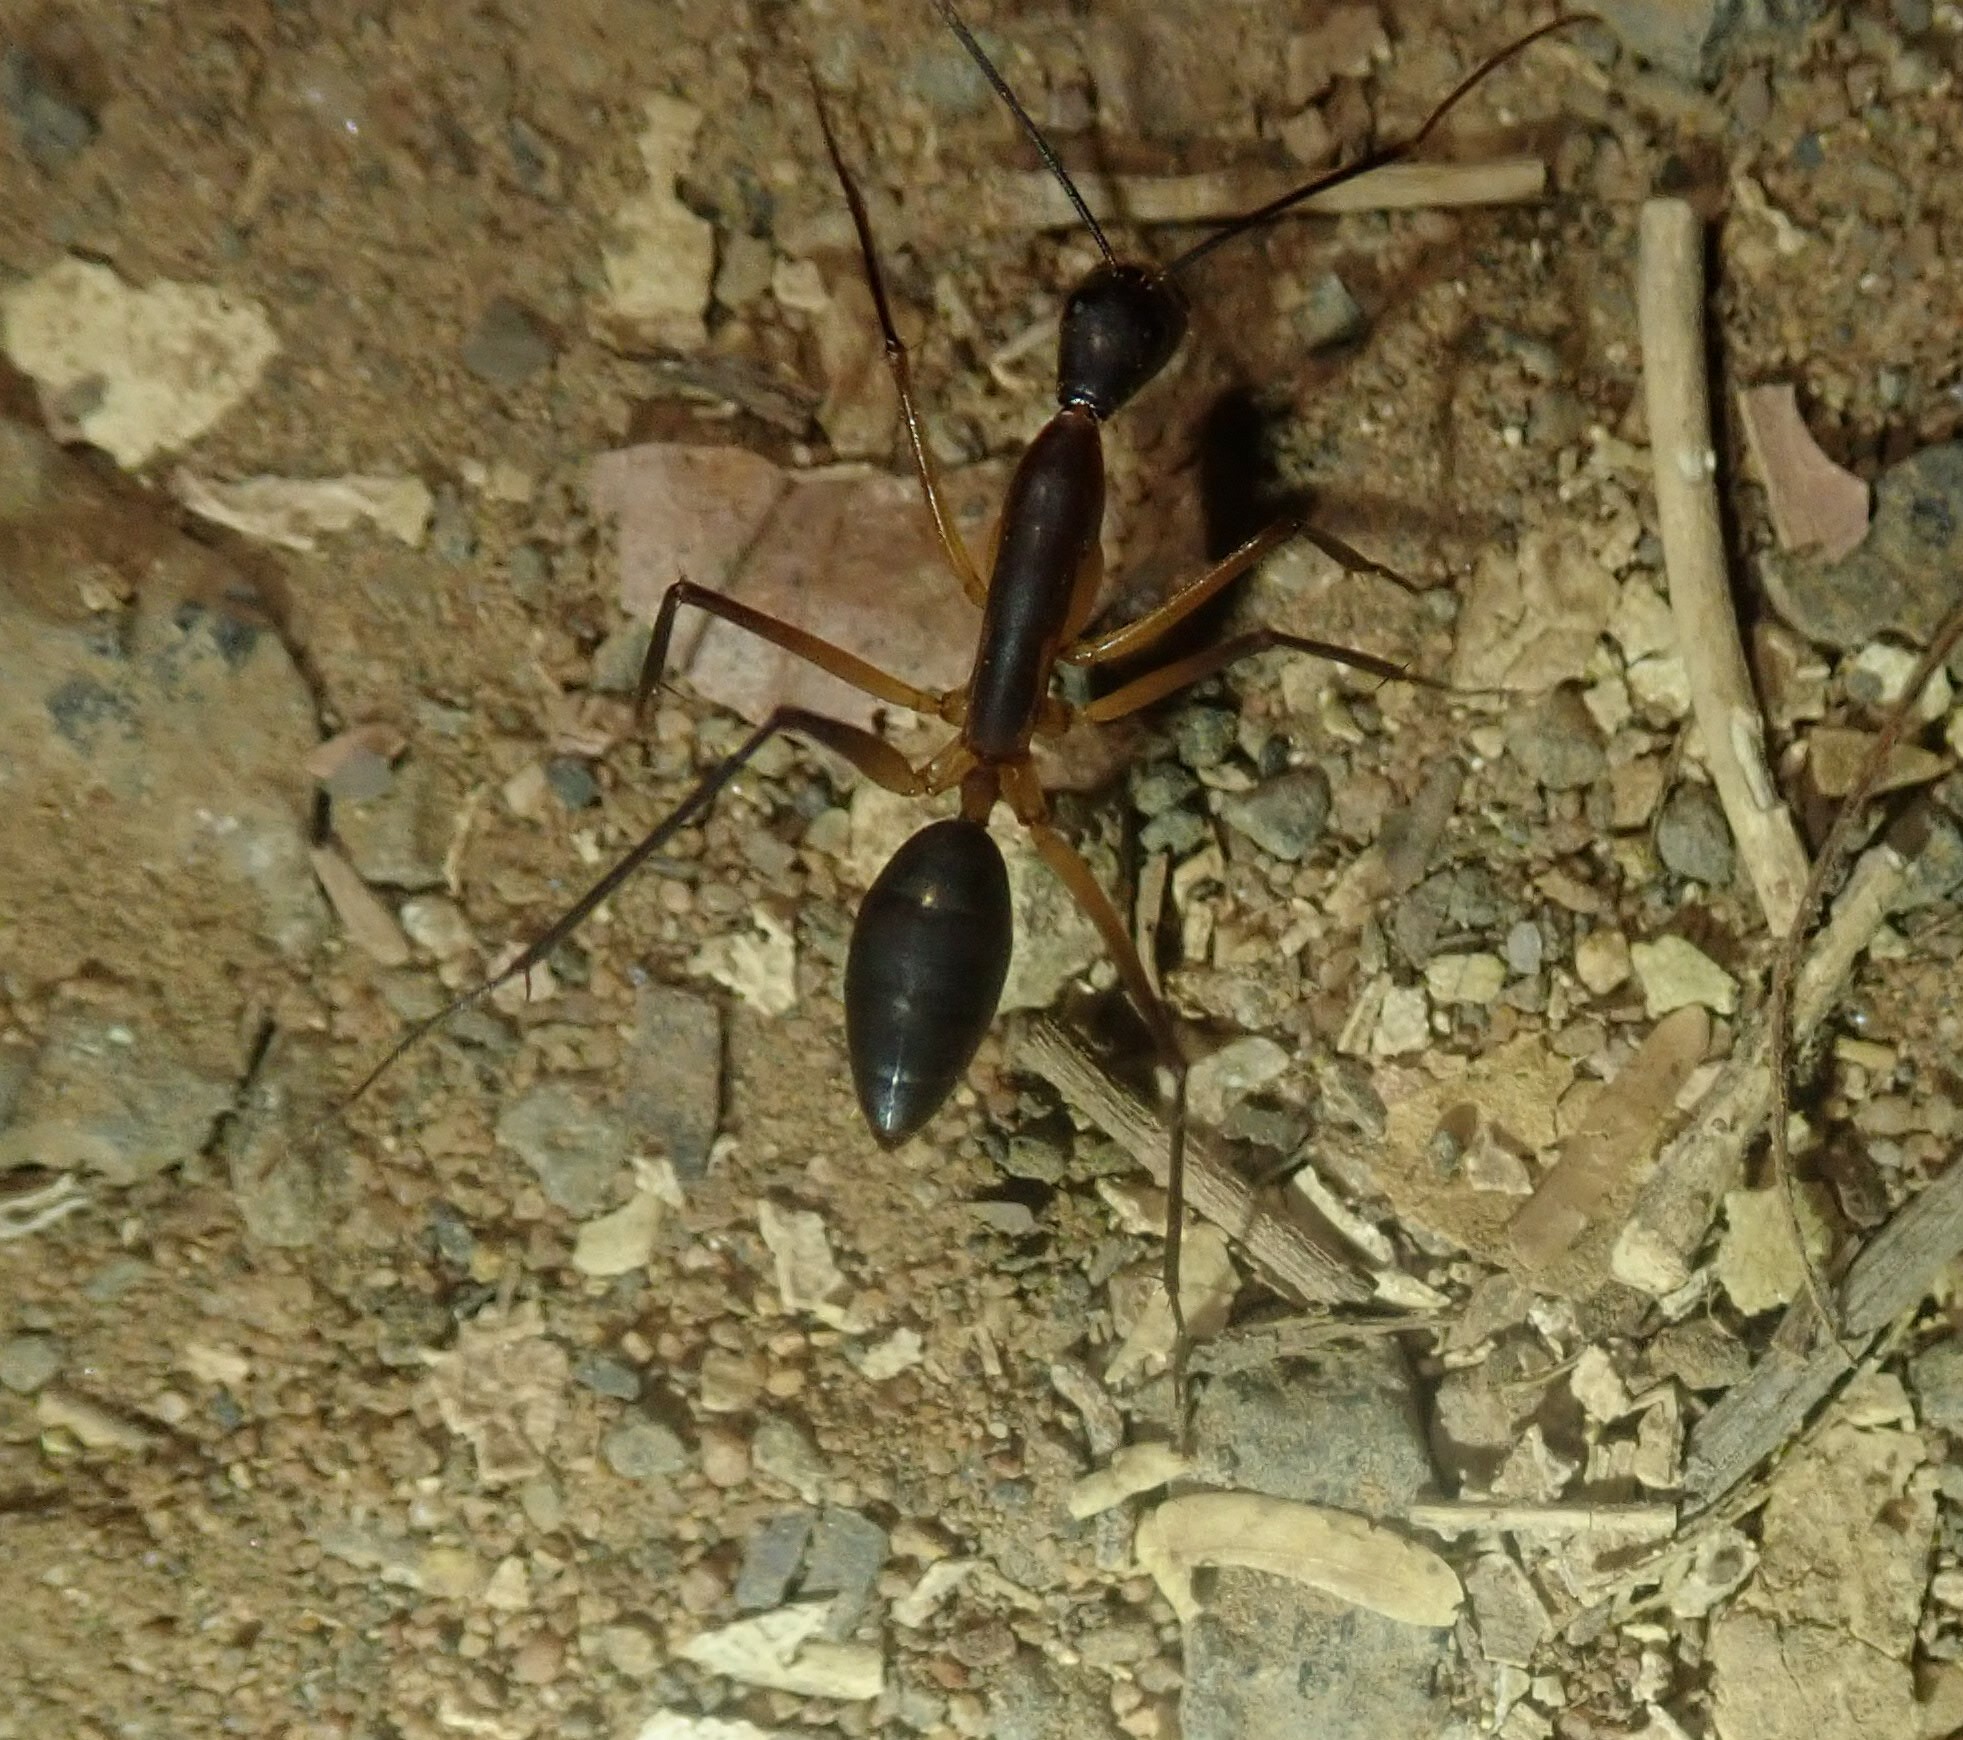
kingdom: Animalia
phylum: Arthropoda
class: Insecta
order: Hymenoptera
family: Formicidae
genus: Camponotus
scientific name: Camponotus etiolipes
